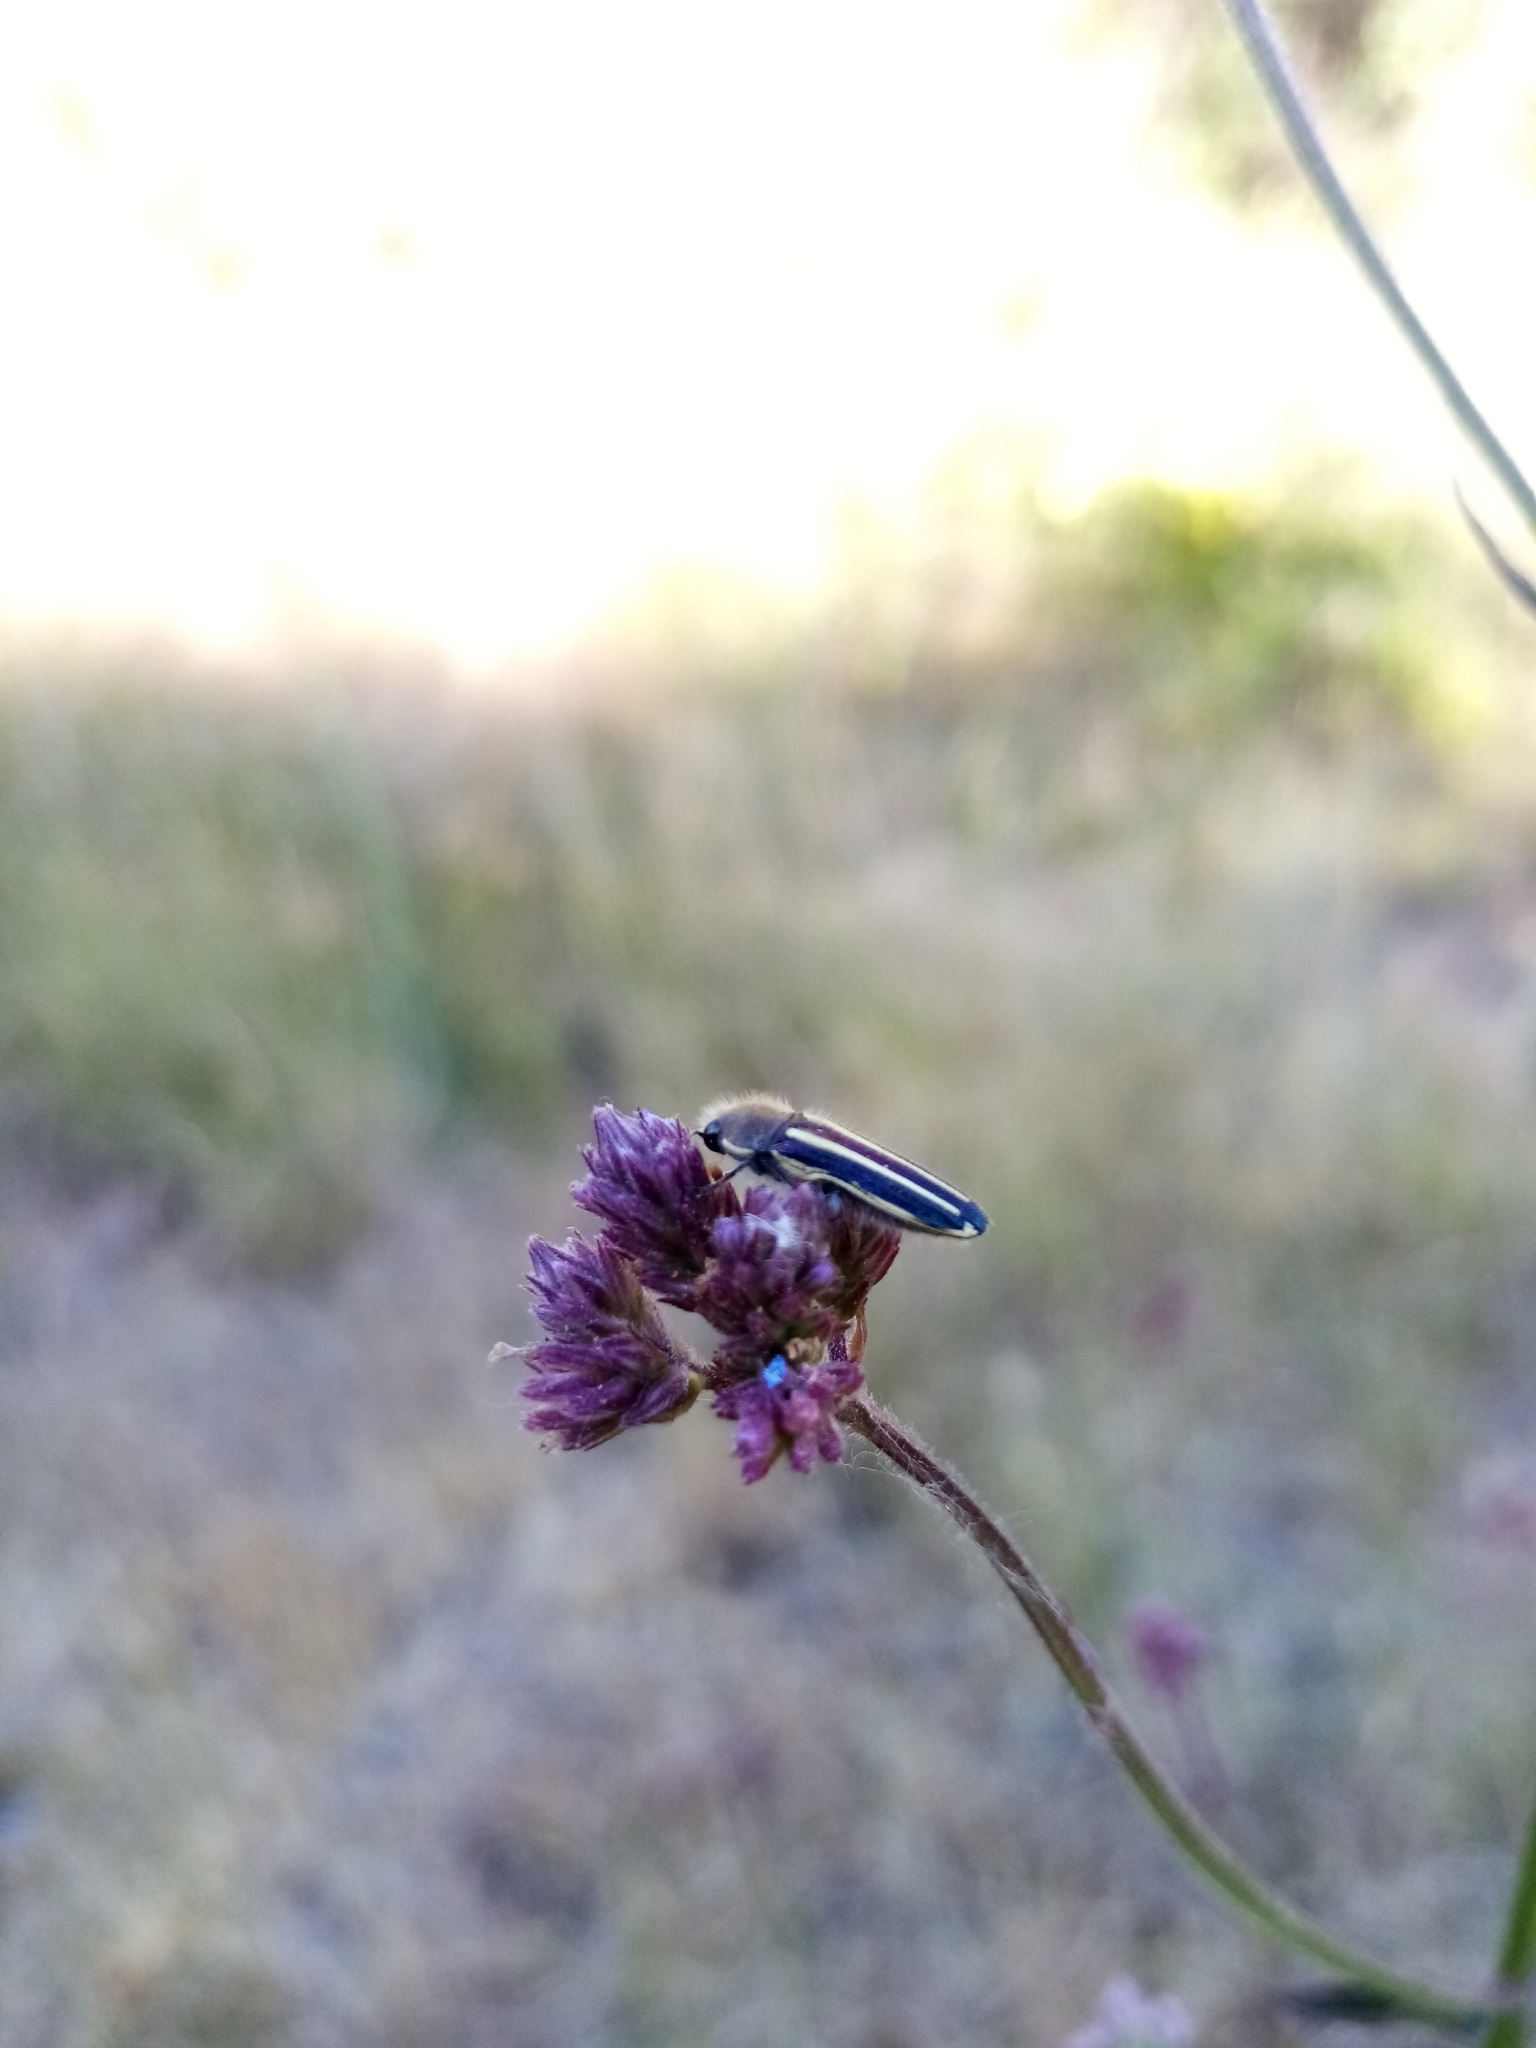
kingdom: Animalia
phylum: Arthropoda
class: Insecta
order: Coleoptera
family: Buprestidae
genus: Lasionota
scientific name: Lasionota minor
